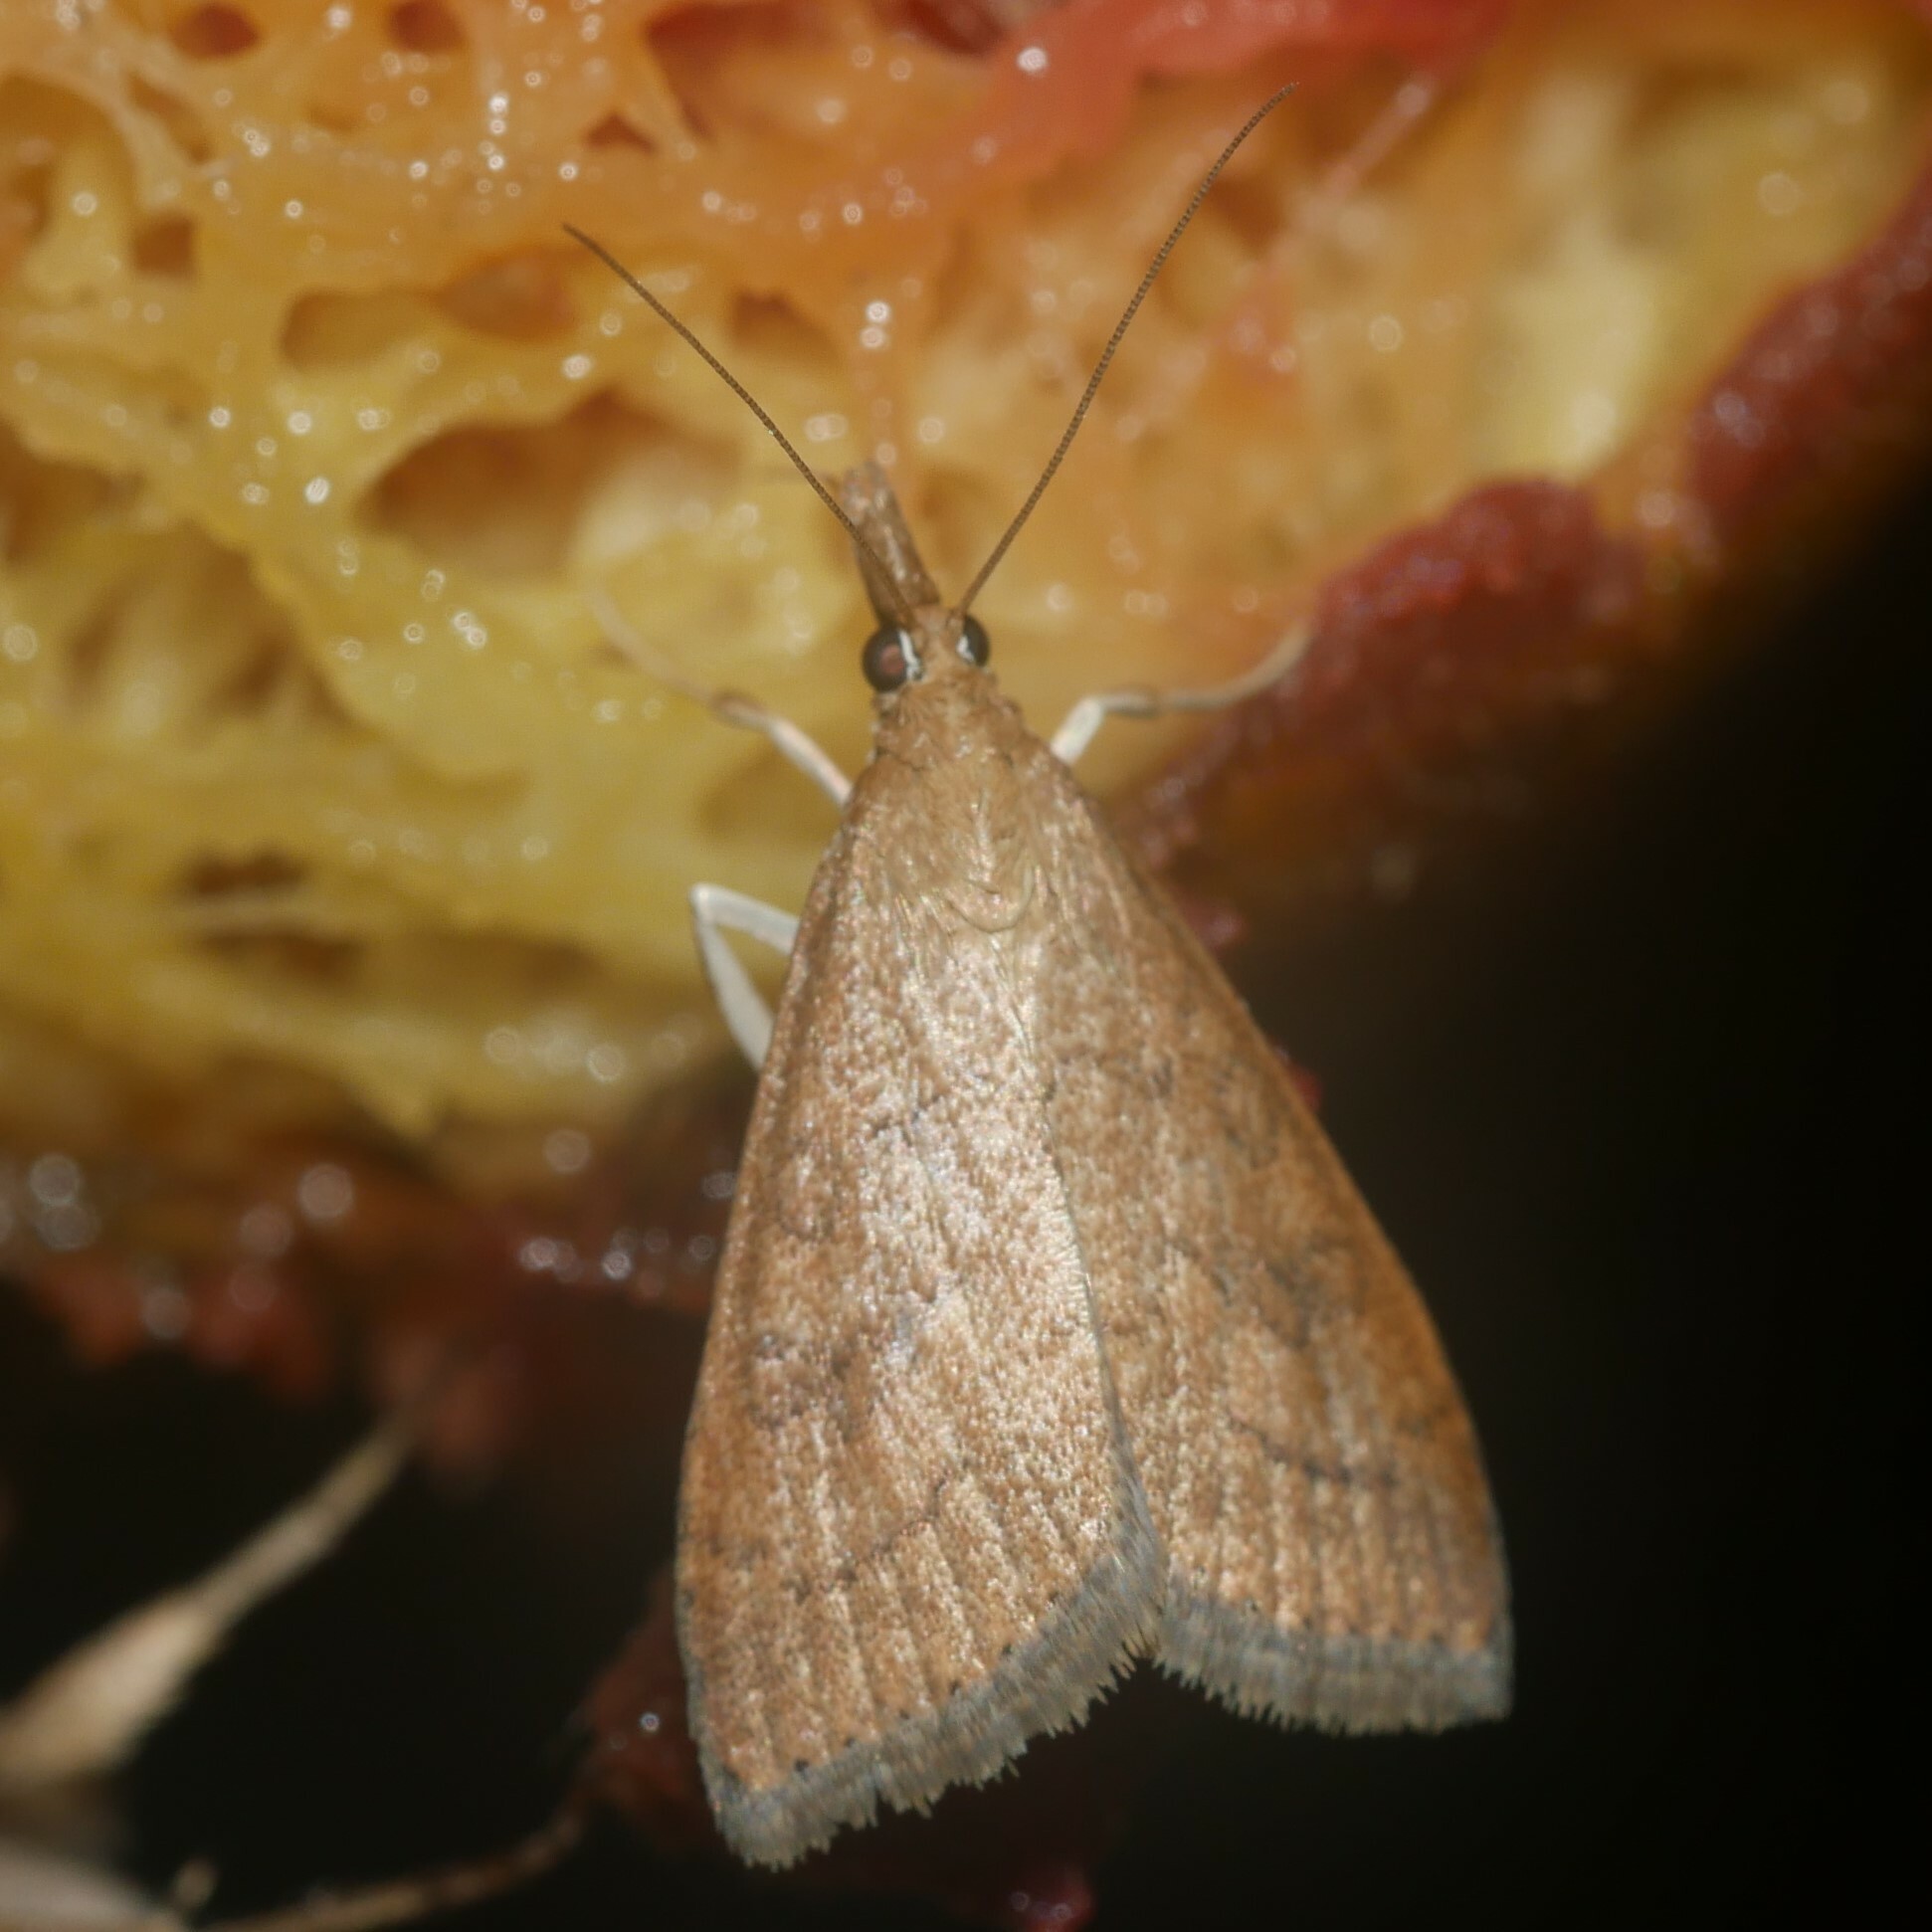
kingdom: Animalia
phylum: Arthropoda
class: Insecta
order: Lepidoptera
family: Crambidae
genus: Udea
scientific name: Udea rubigalis
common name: Celery leaftier moth
